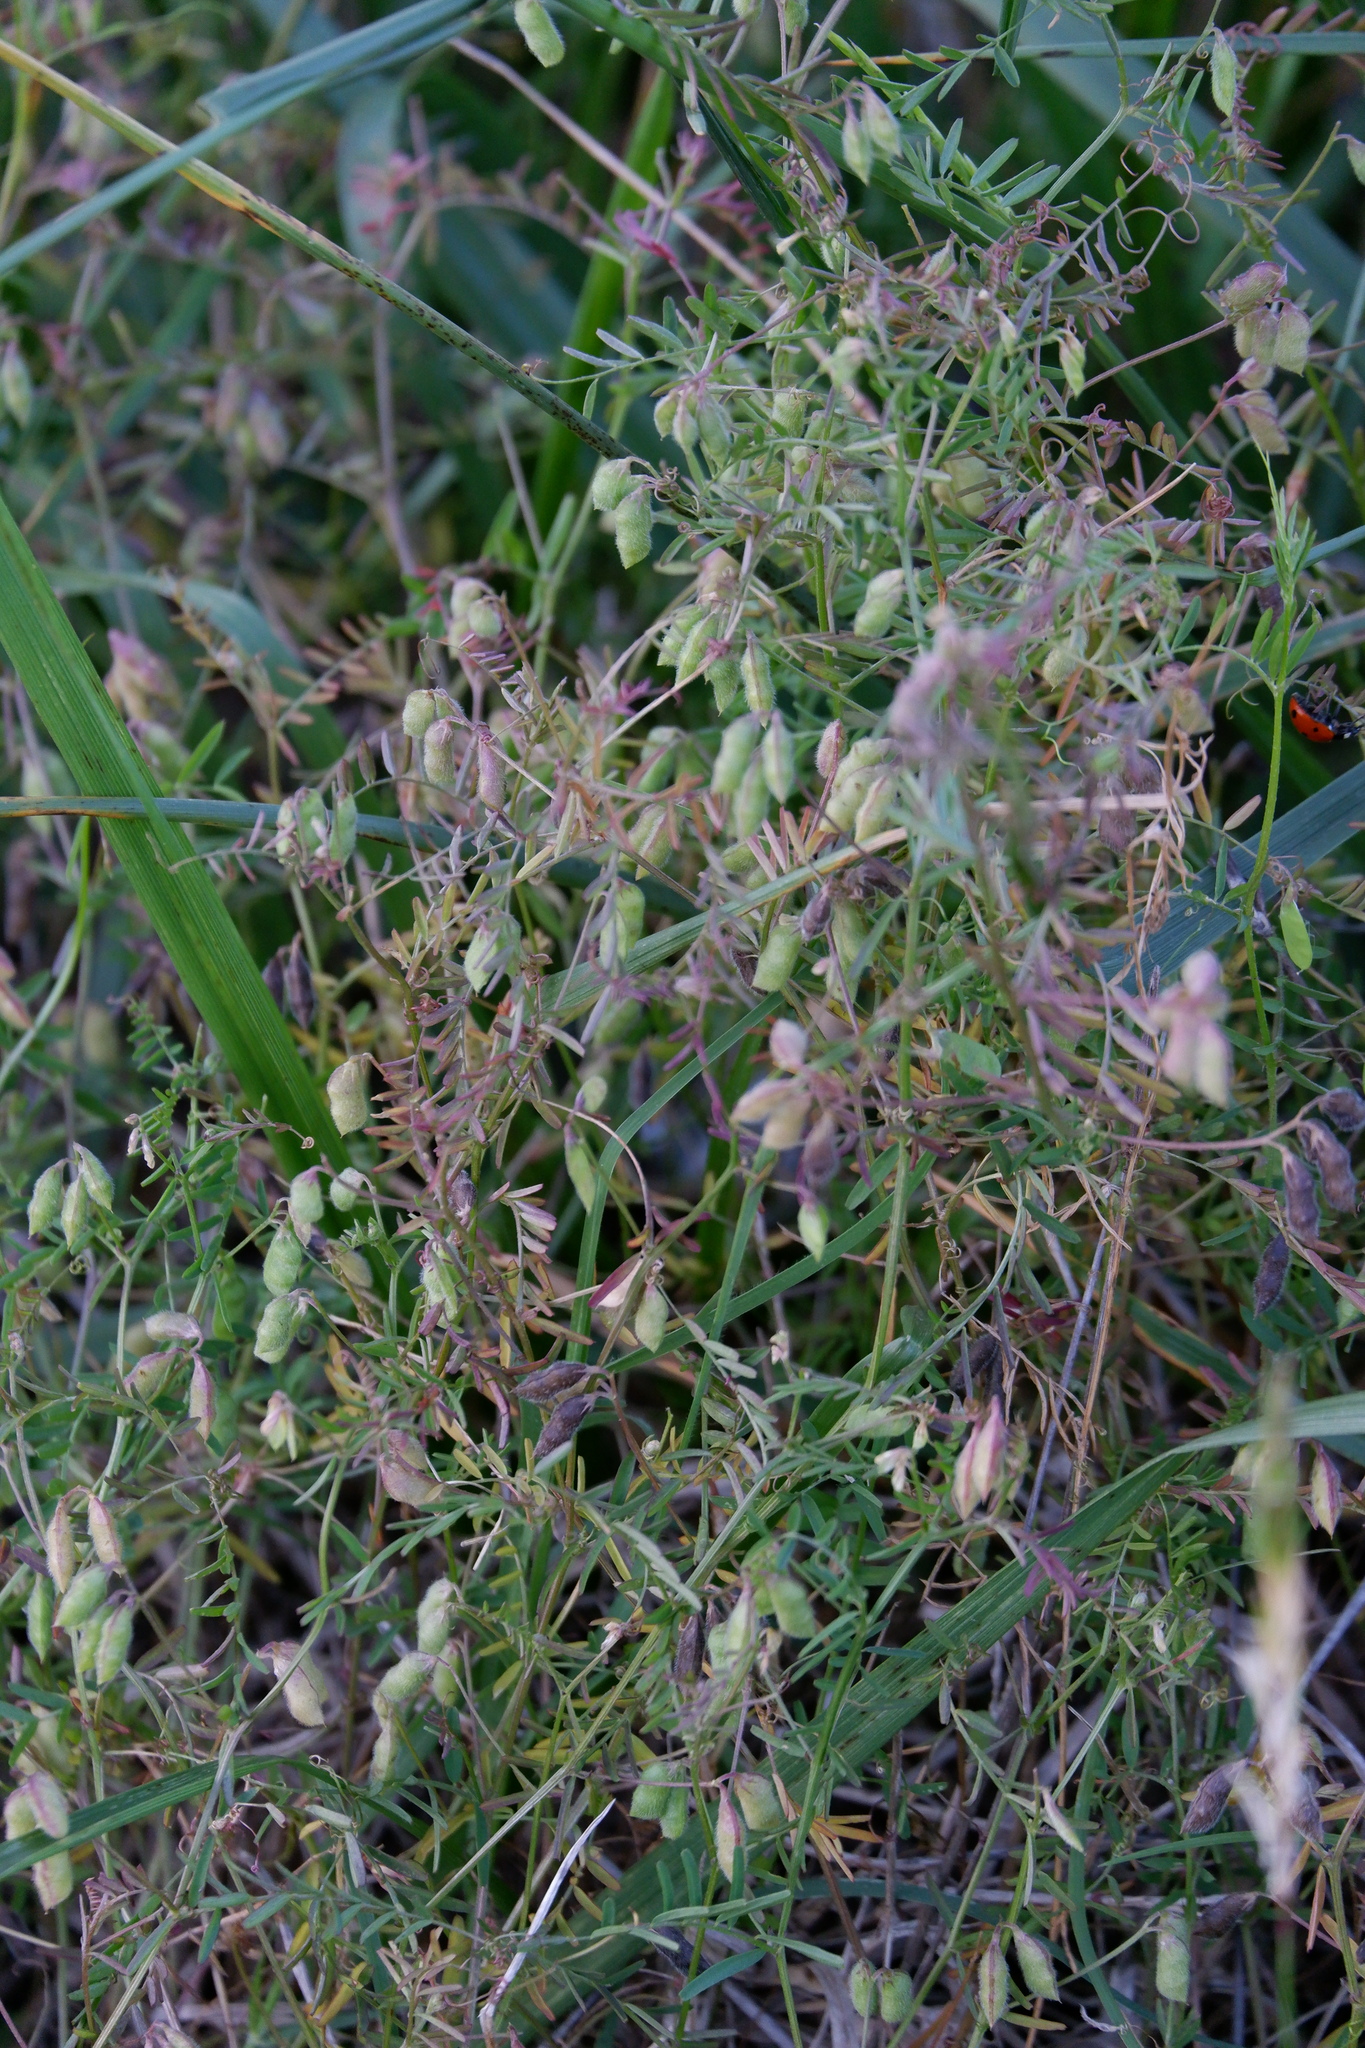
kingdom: Plantae
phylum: Tracheophyta
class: Magnoliopsida
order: Fabales
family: Fabaceae
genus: Vicia
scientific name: Vicia hirsuta
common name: Tiny vetch
